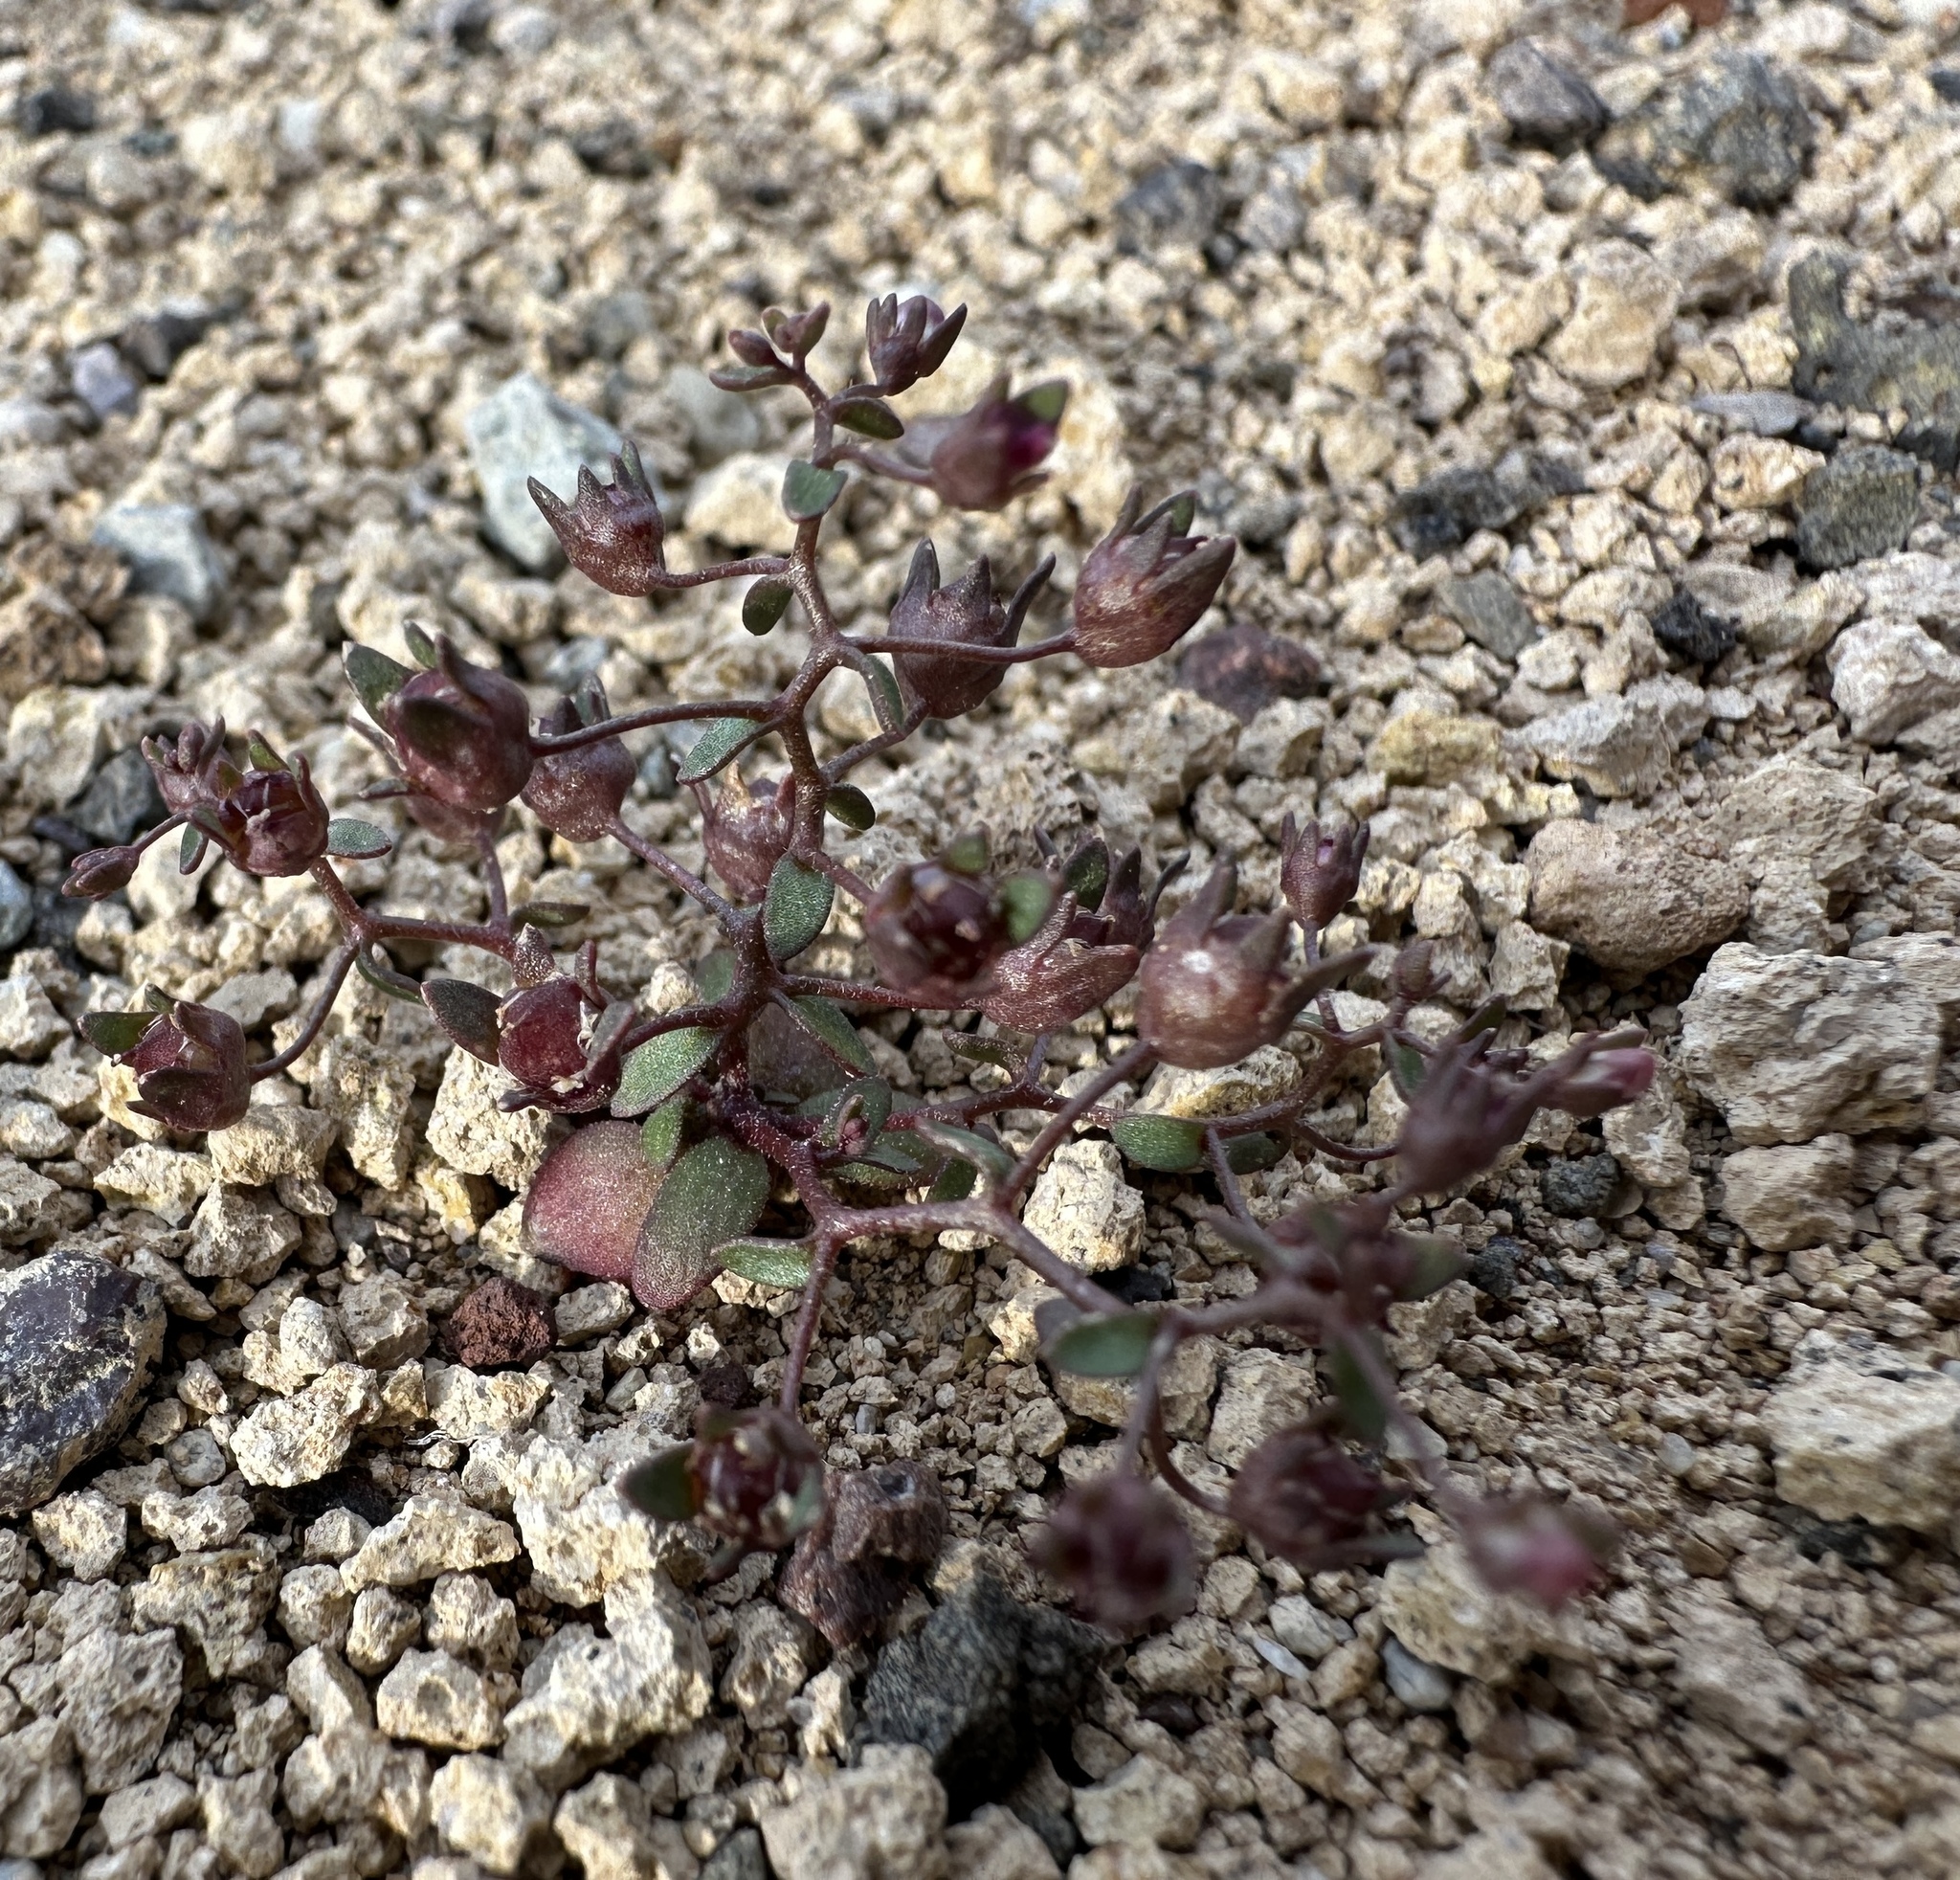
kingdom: Plantae
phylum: Tracheophyta
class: Magnoliopsida
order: Asterales
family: Campanulaceae
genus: Nemacladus
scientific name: Nemacladus rigidus
